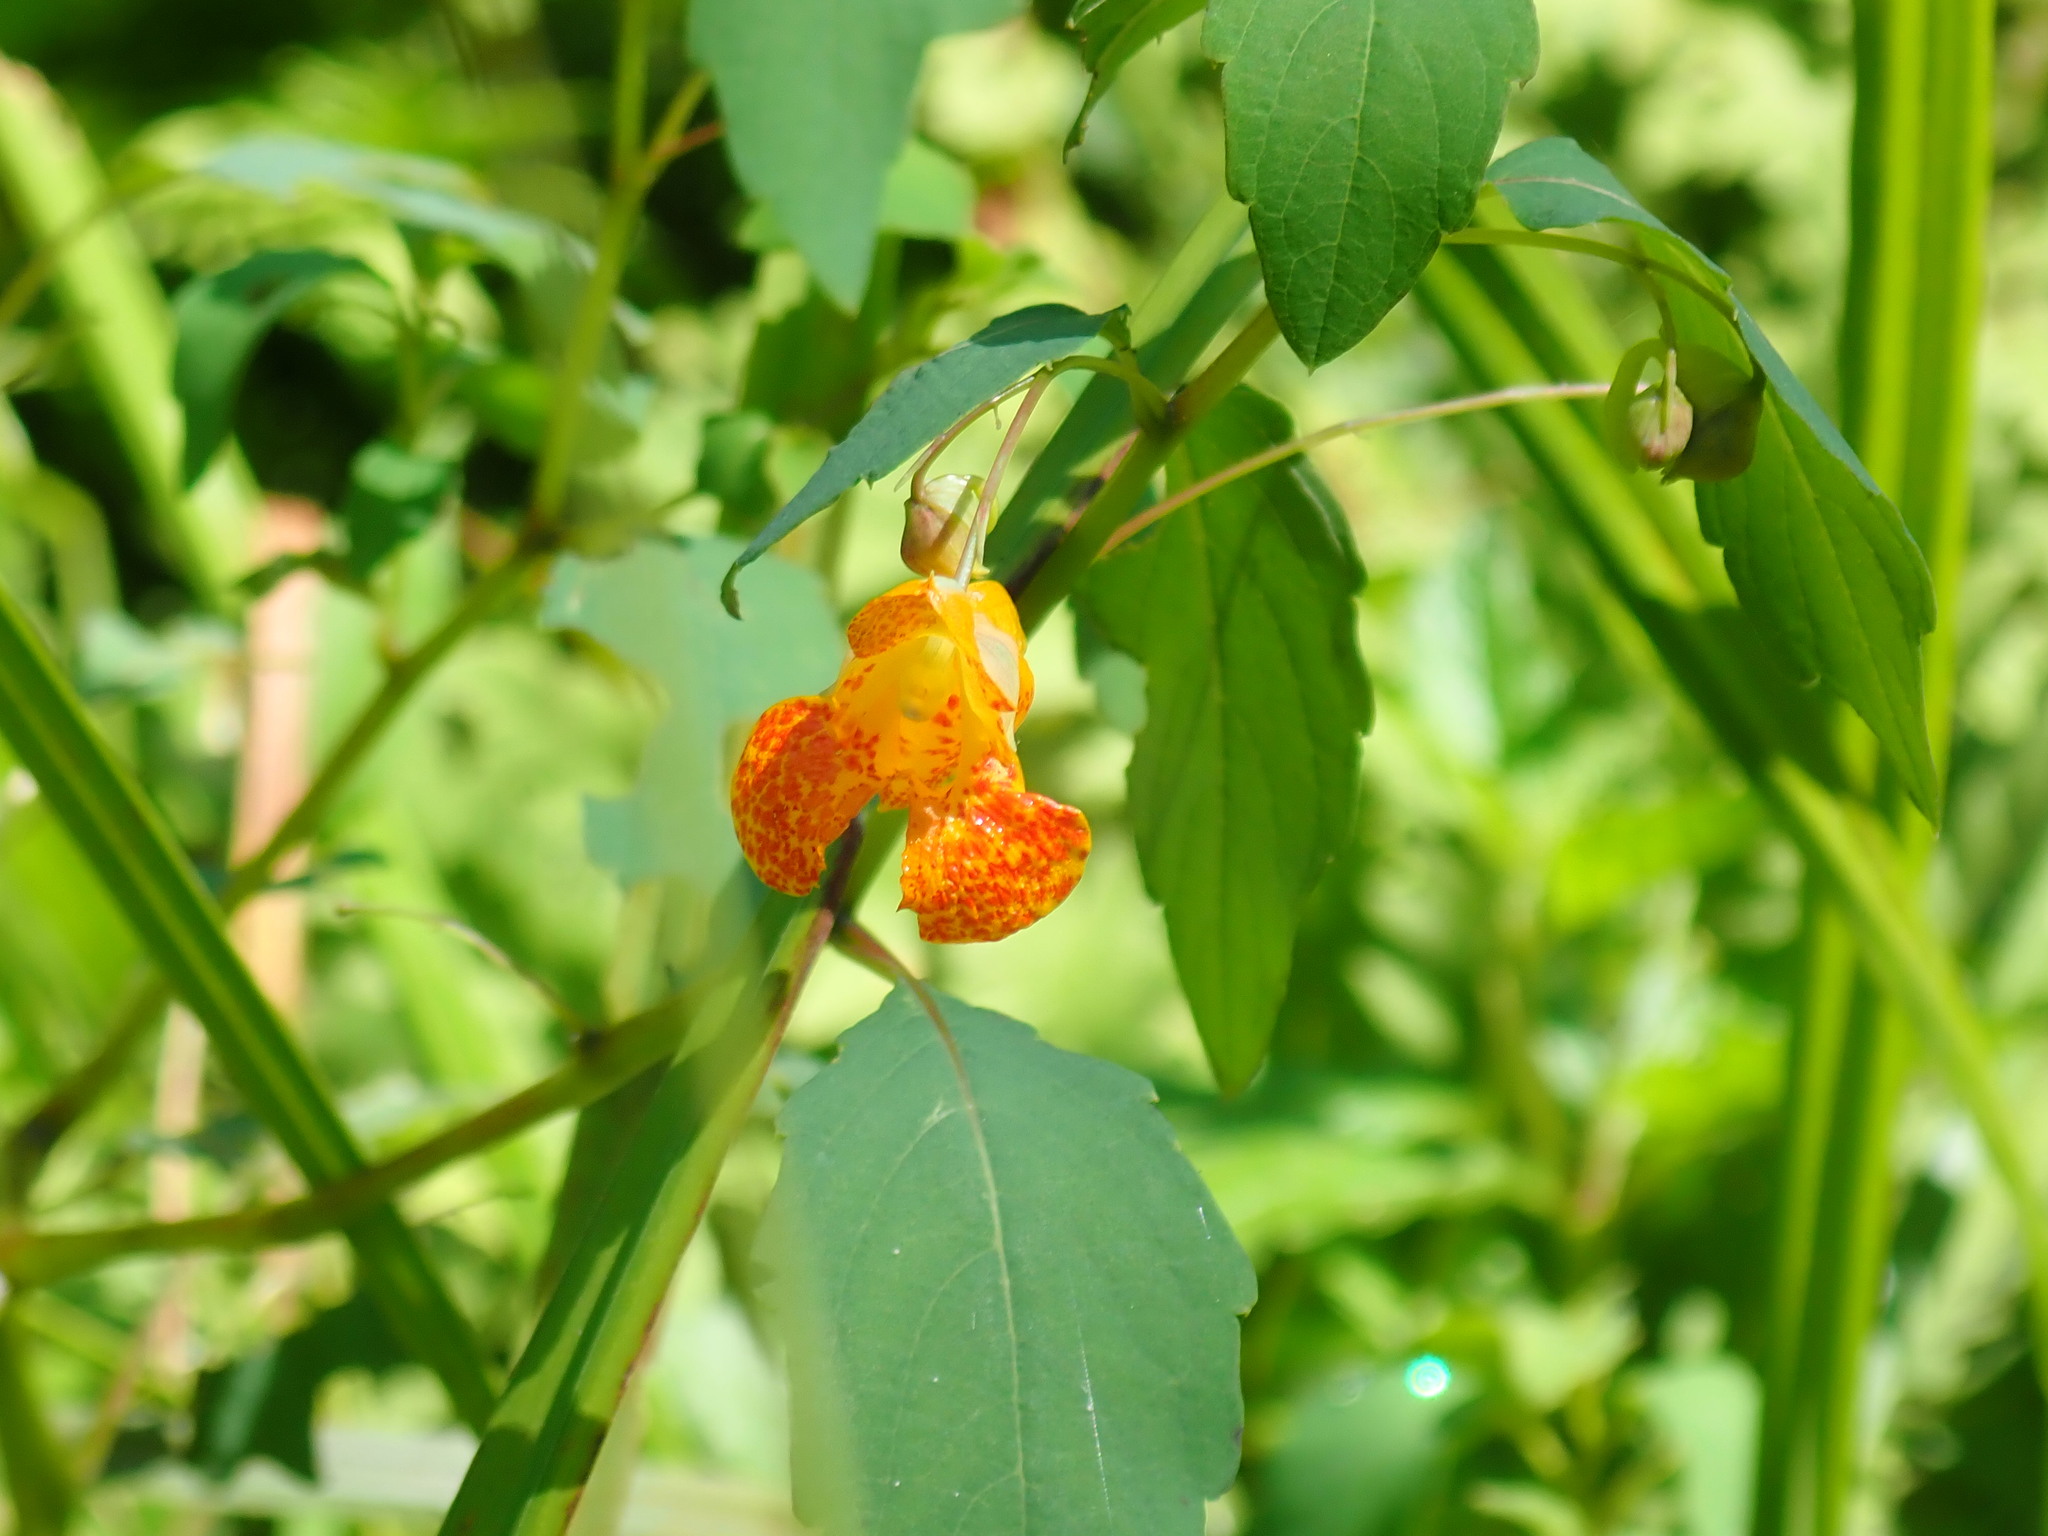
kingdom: Plantae
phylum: Tracheophyta
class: Magnoliopsida
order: Ericales
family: Balsaminaceae
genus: Impatiens
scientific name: Impatiens capensis
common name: Orange balsam
